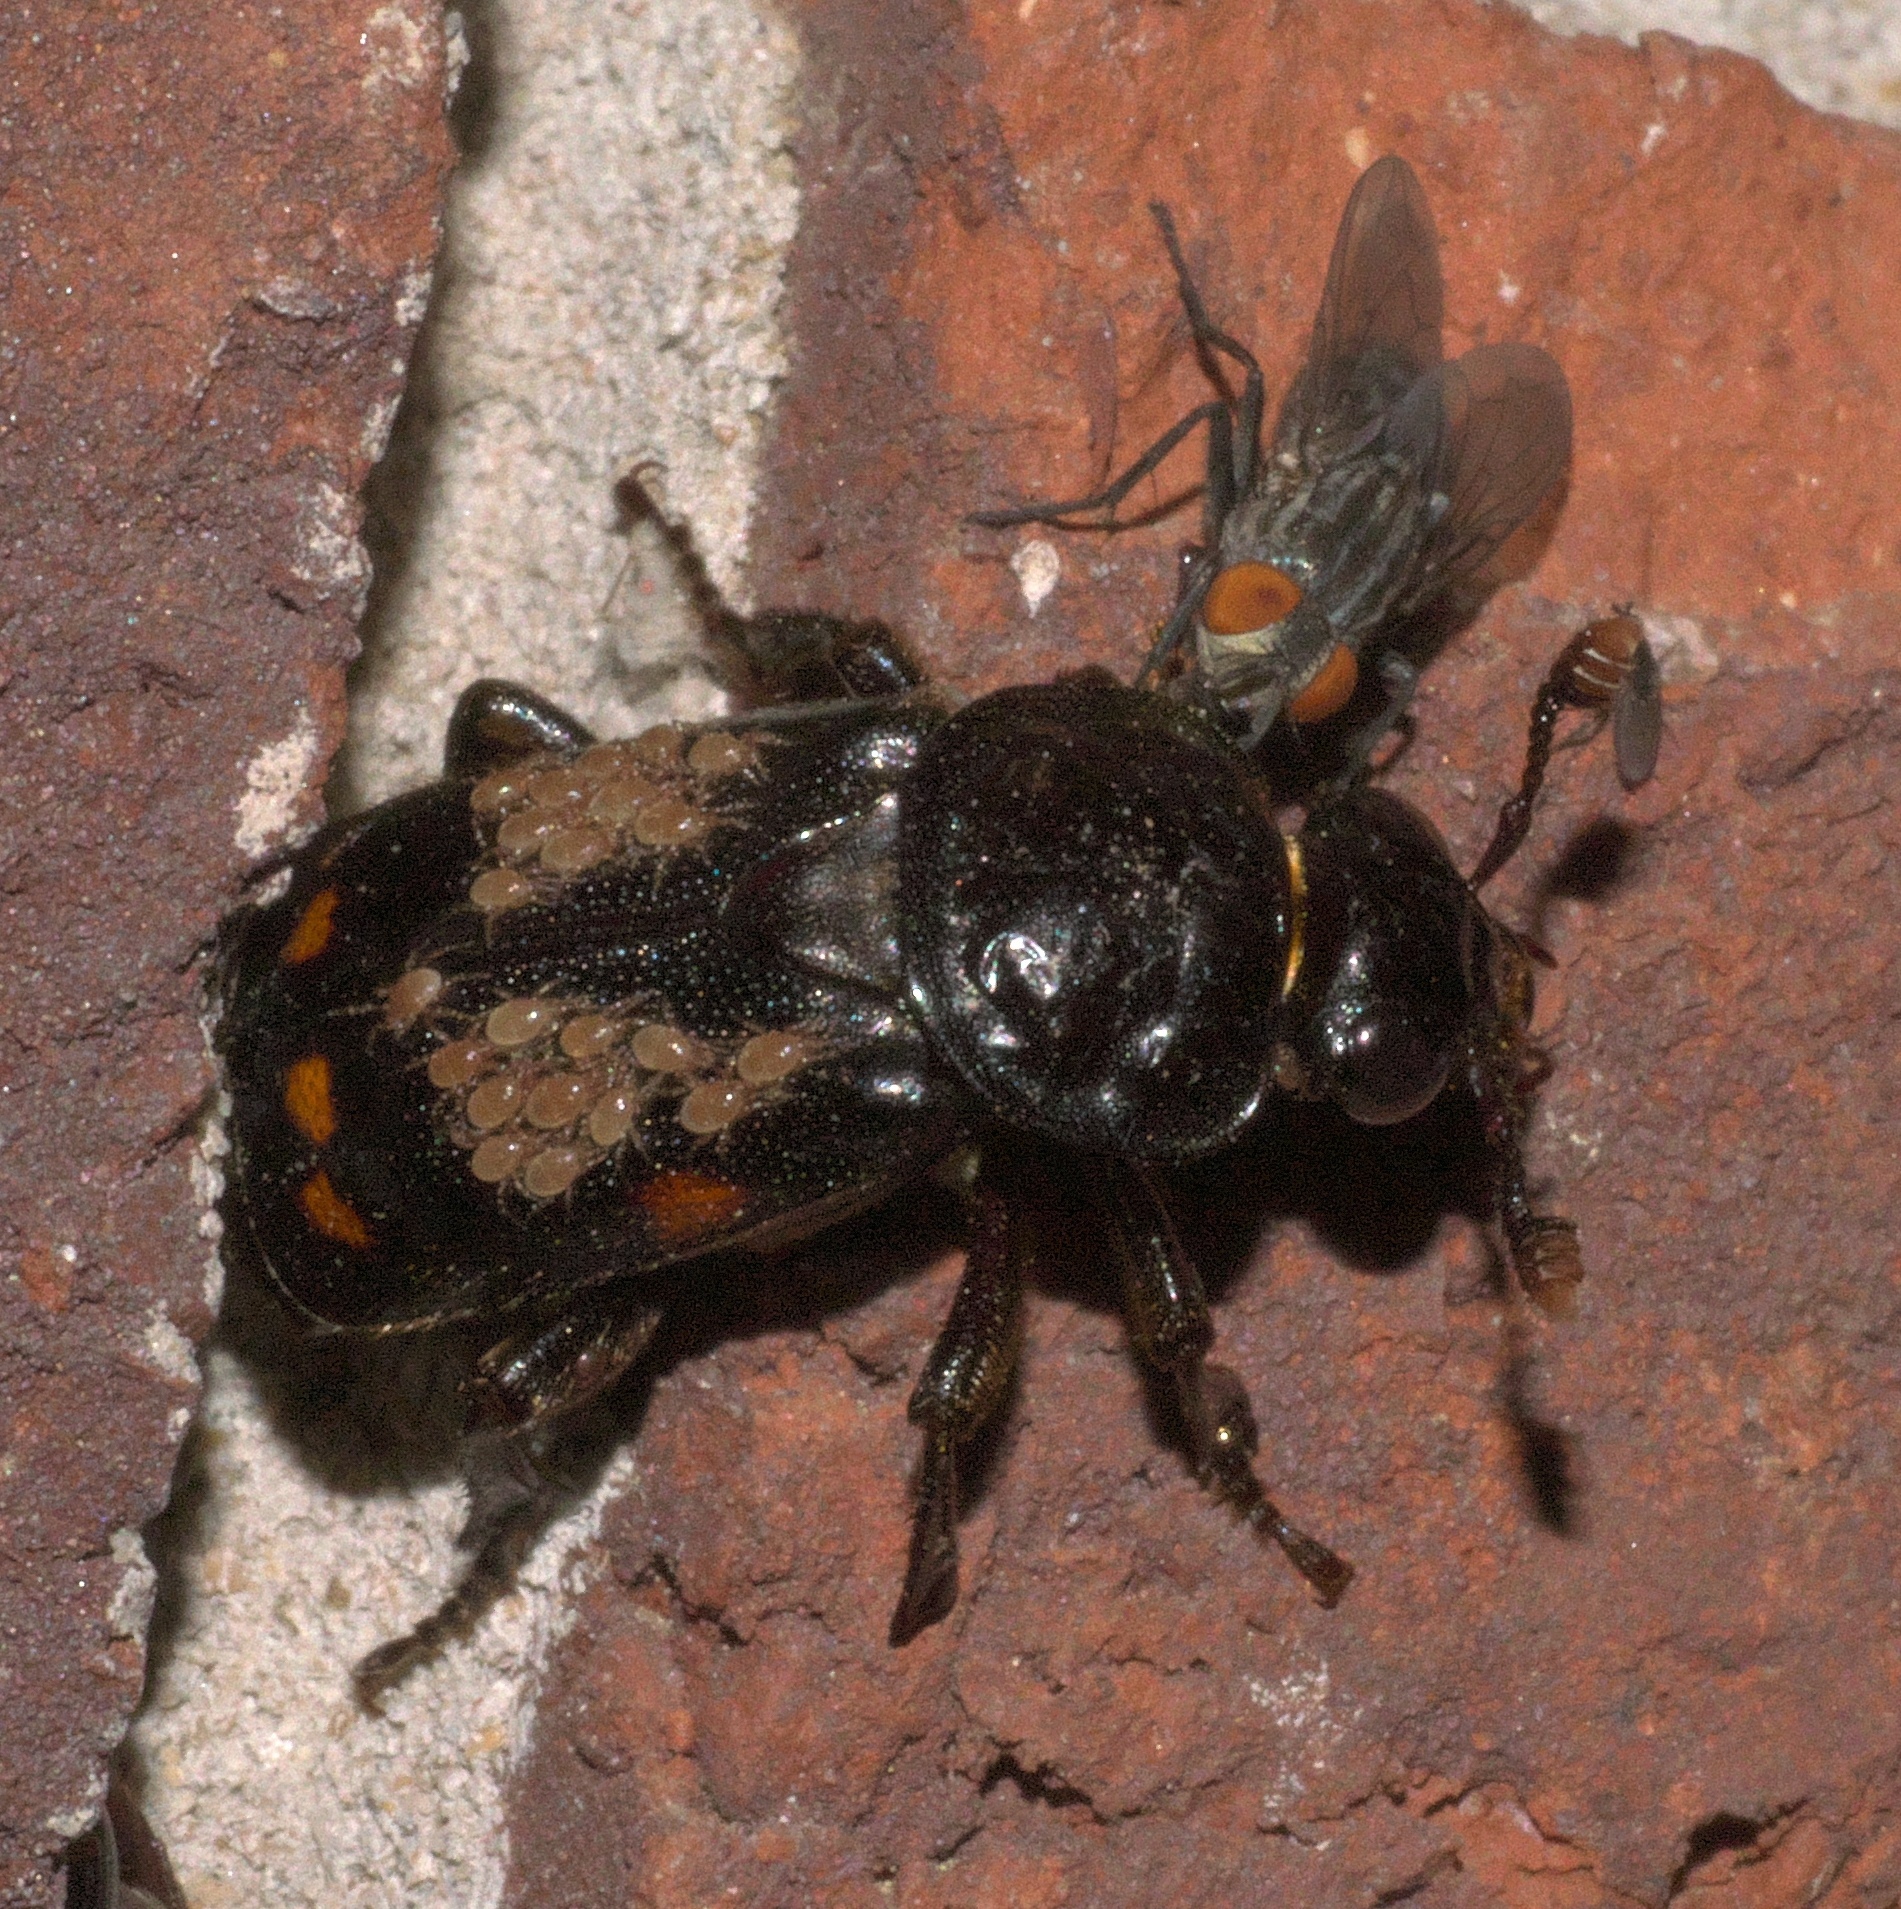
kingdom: Animalia
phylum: Arthropoda
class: Insecta
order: Coleoptera
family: Staphylinidae
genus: Nicrophorus
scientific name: Nicrophorus pustulatus
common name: Pustulated carrion beetle
